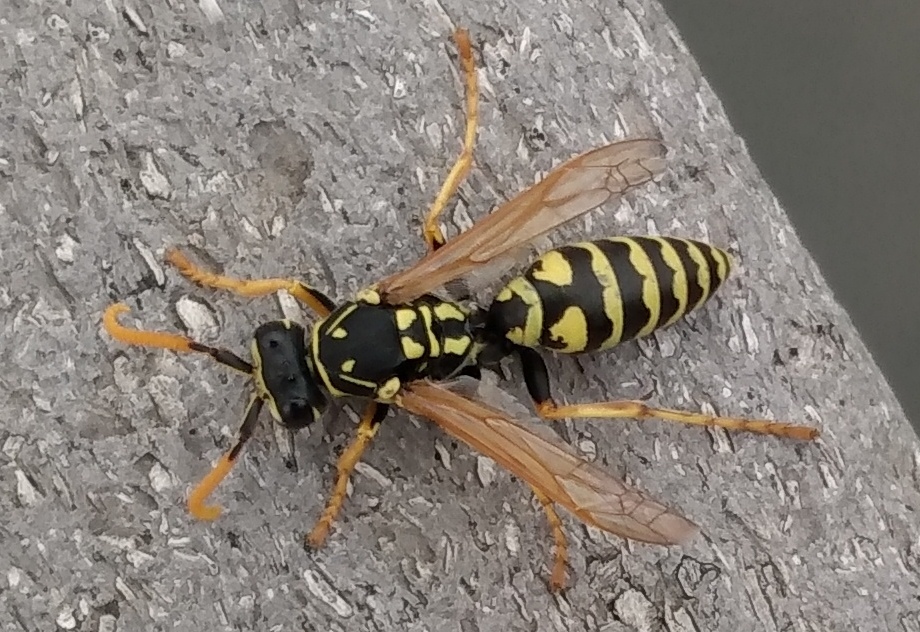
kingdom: Animalia
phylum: Arthropoda
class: Insecta
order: Hymenoptera
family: Eumenidae
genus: Polistes
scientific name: Polistes dominula
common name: Paper wasp
